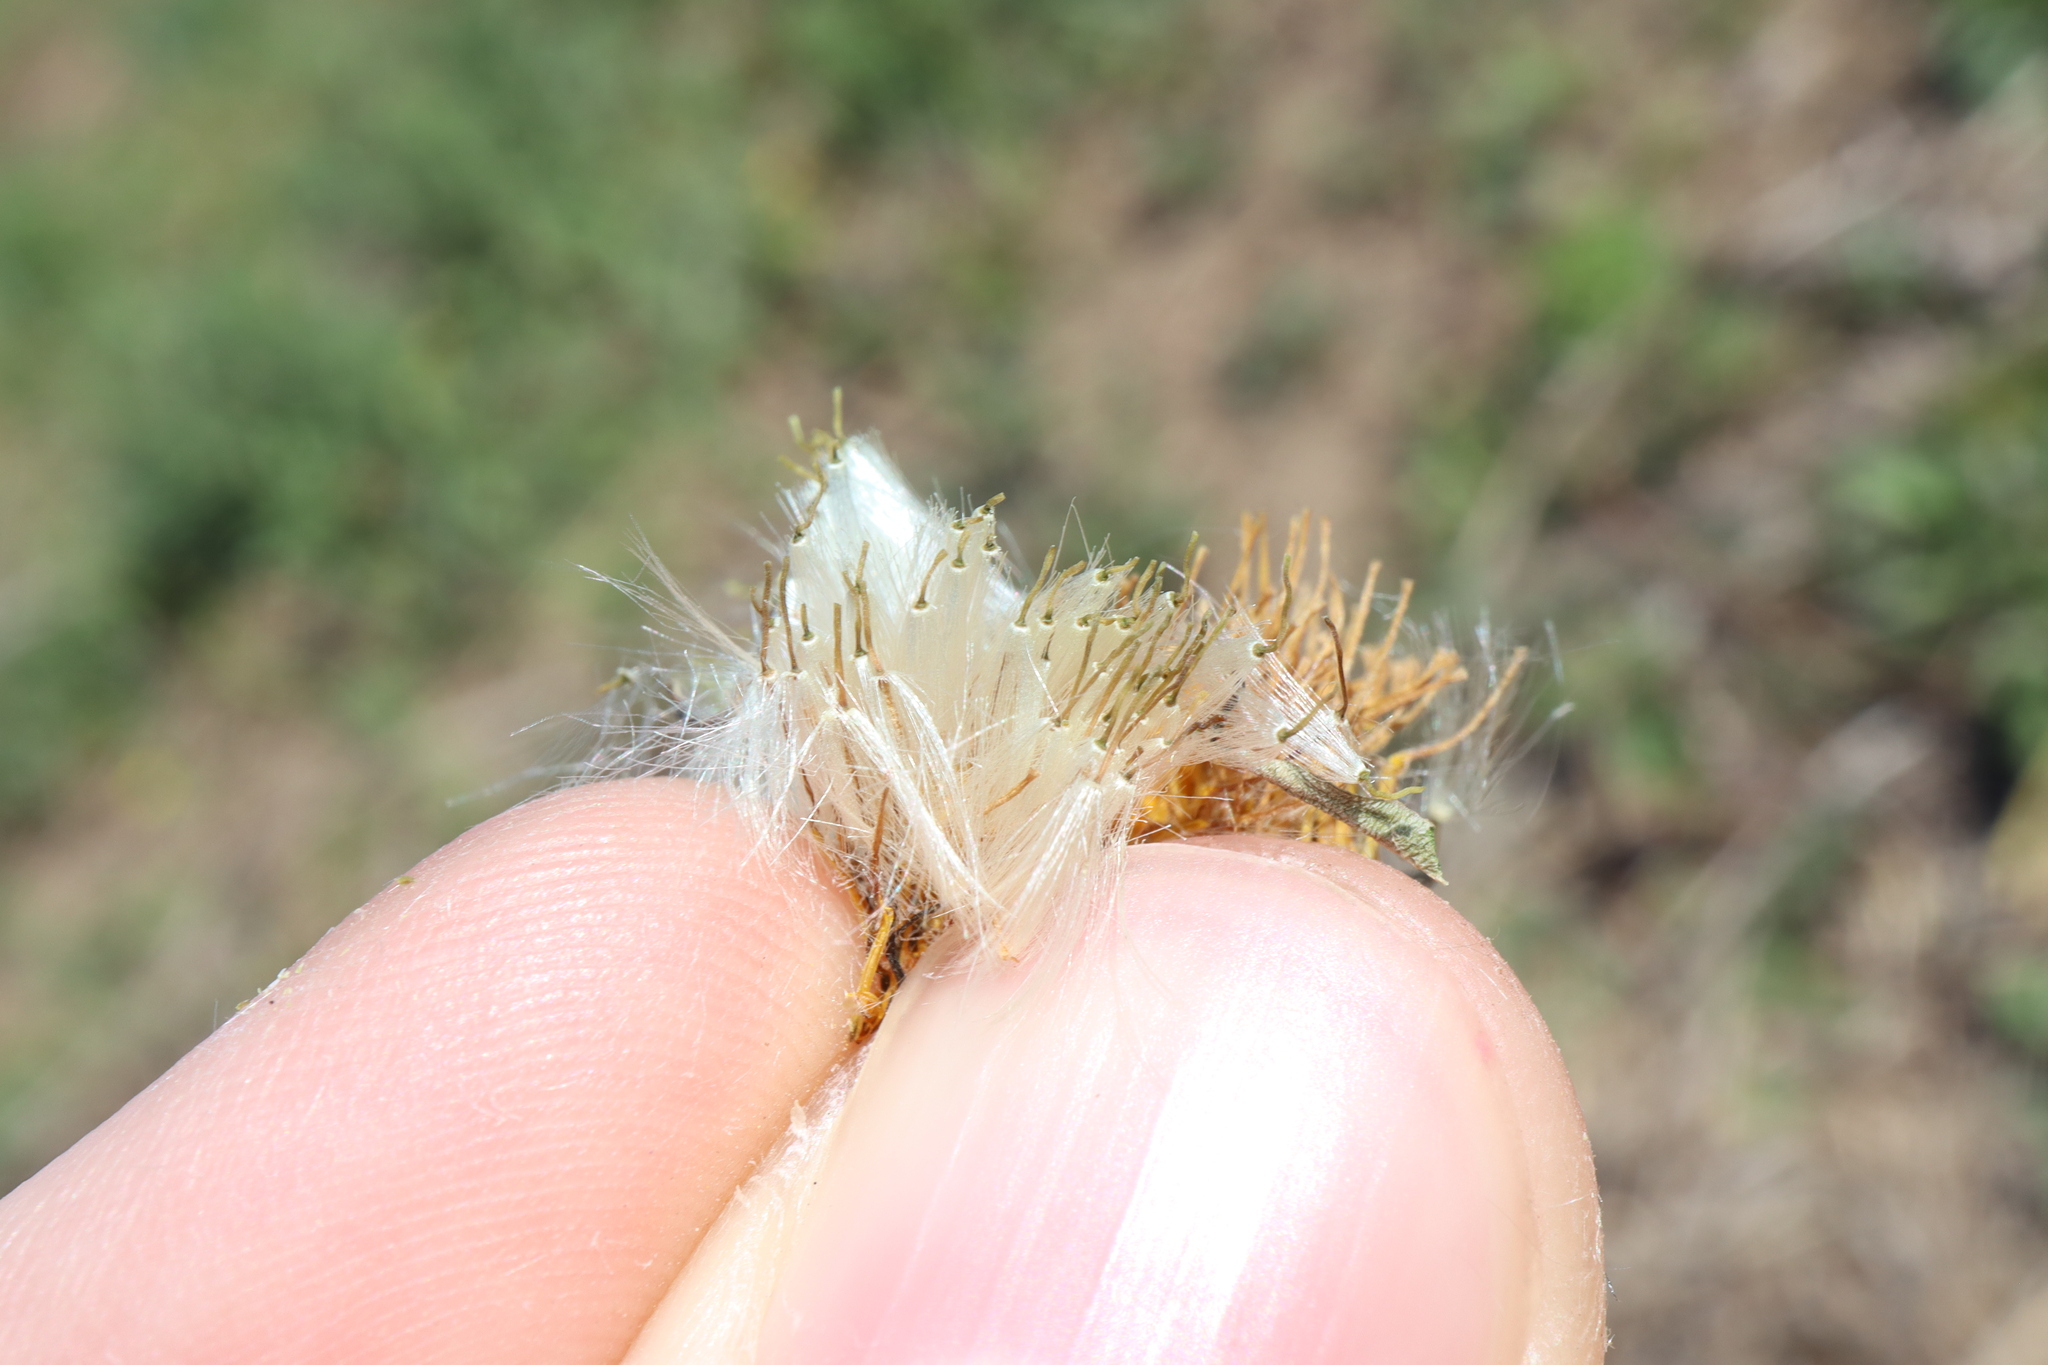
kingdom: Plantae
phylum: Tracheophyta
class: Magnoliopsida
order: Asterales
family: Asteraceae
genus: Taraxacum
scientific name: Taraxacum officinale
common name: Common dandelion
